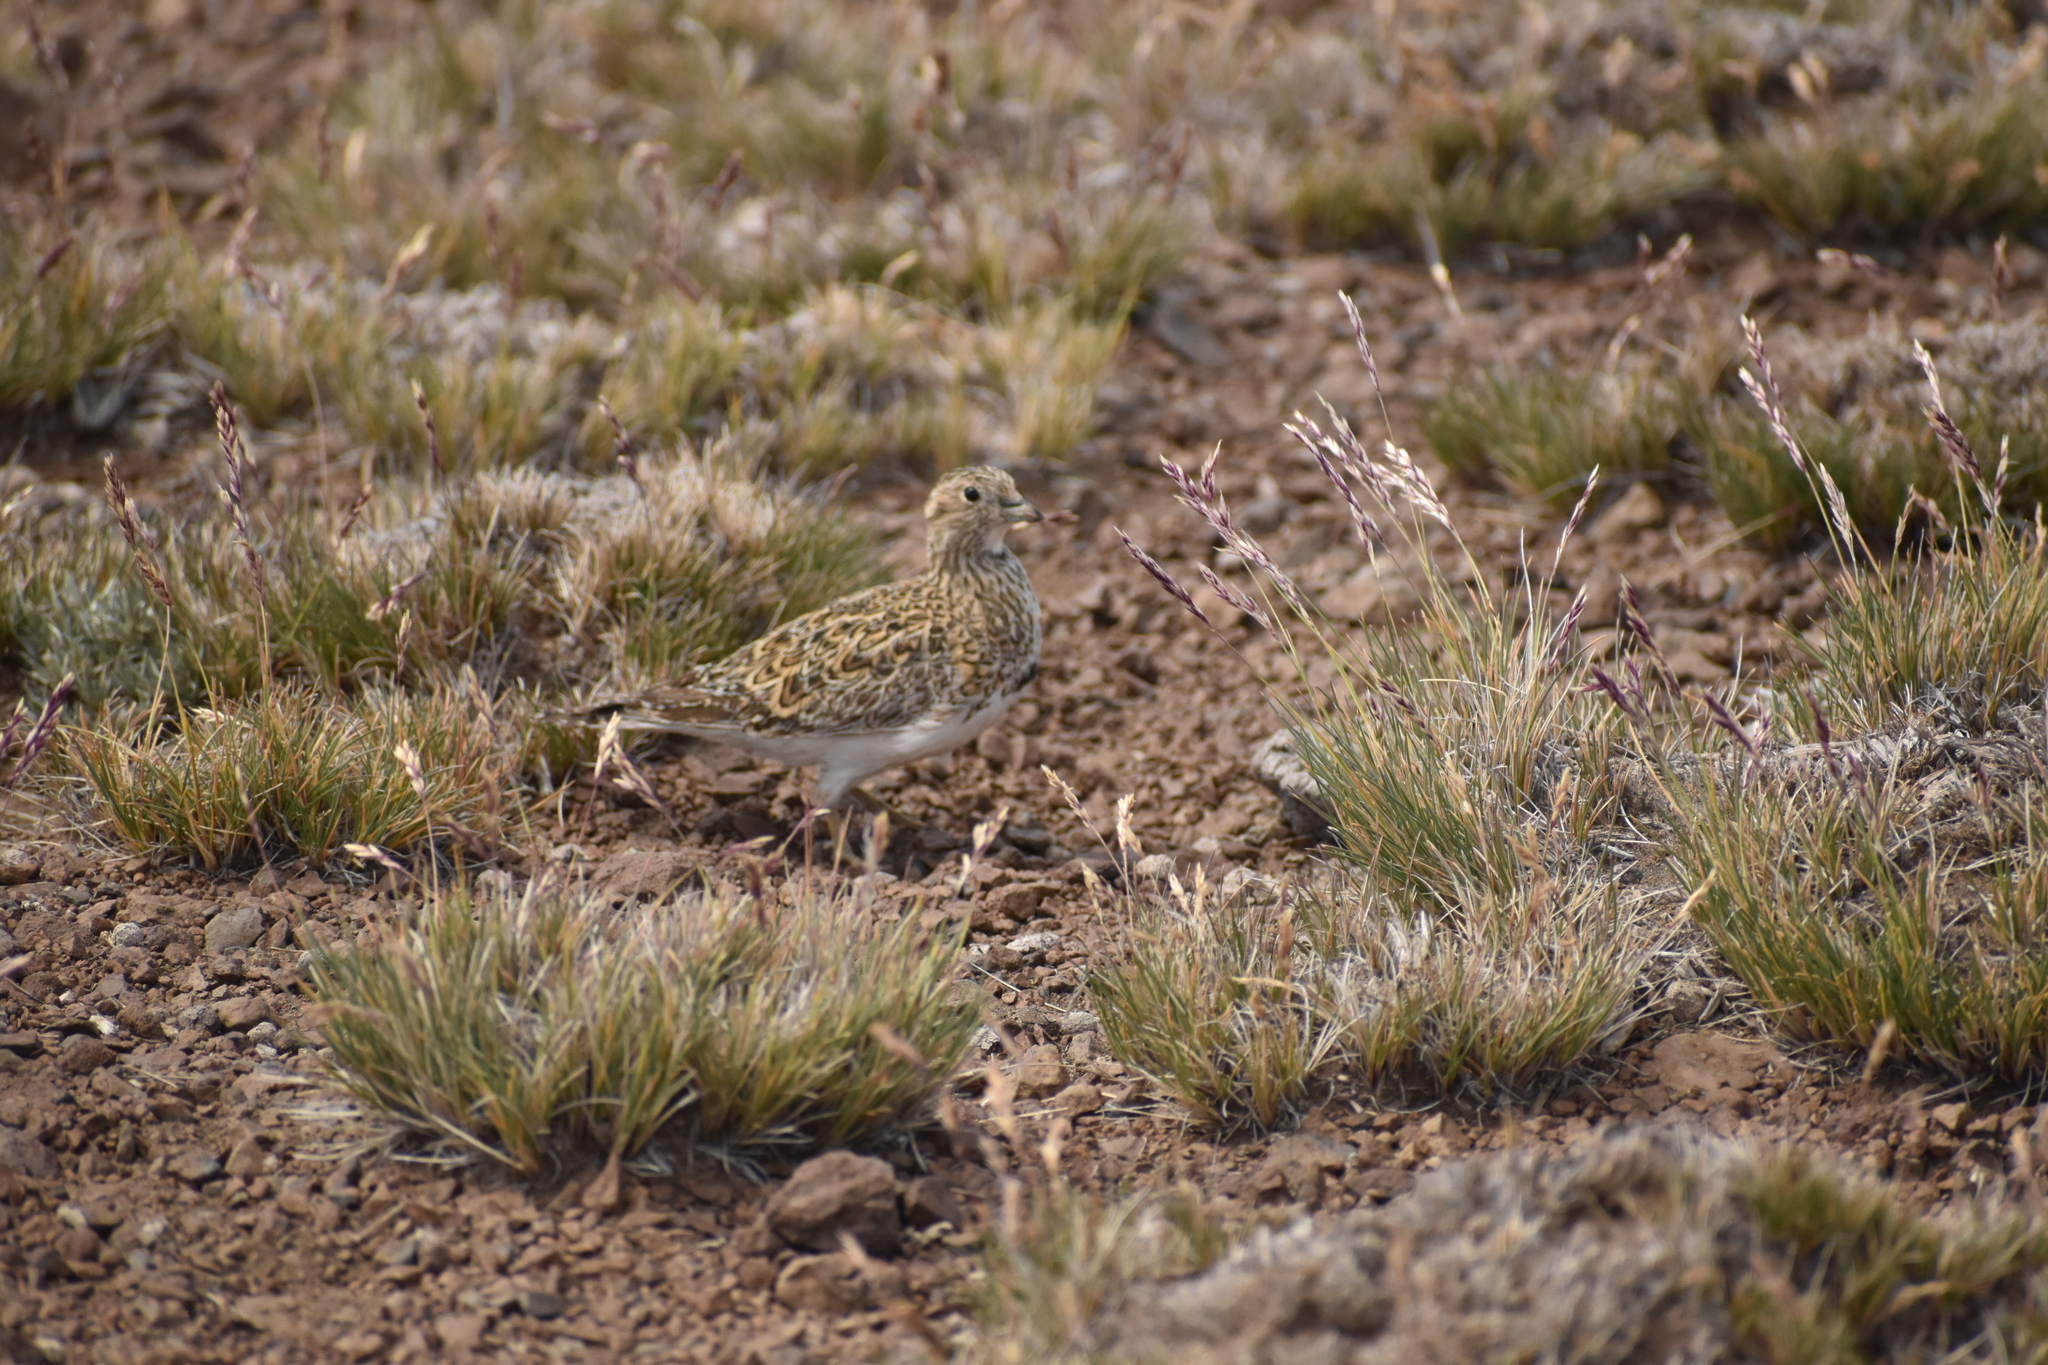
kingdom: Animalia
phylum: Chordata
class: Aves
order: Charadriiformes
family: Thinocoridae
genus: Thinocorus
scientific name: Thinocorus orbignyianus
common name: Grey-breasted seedsnipe
